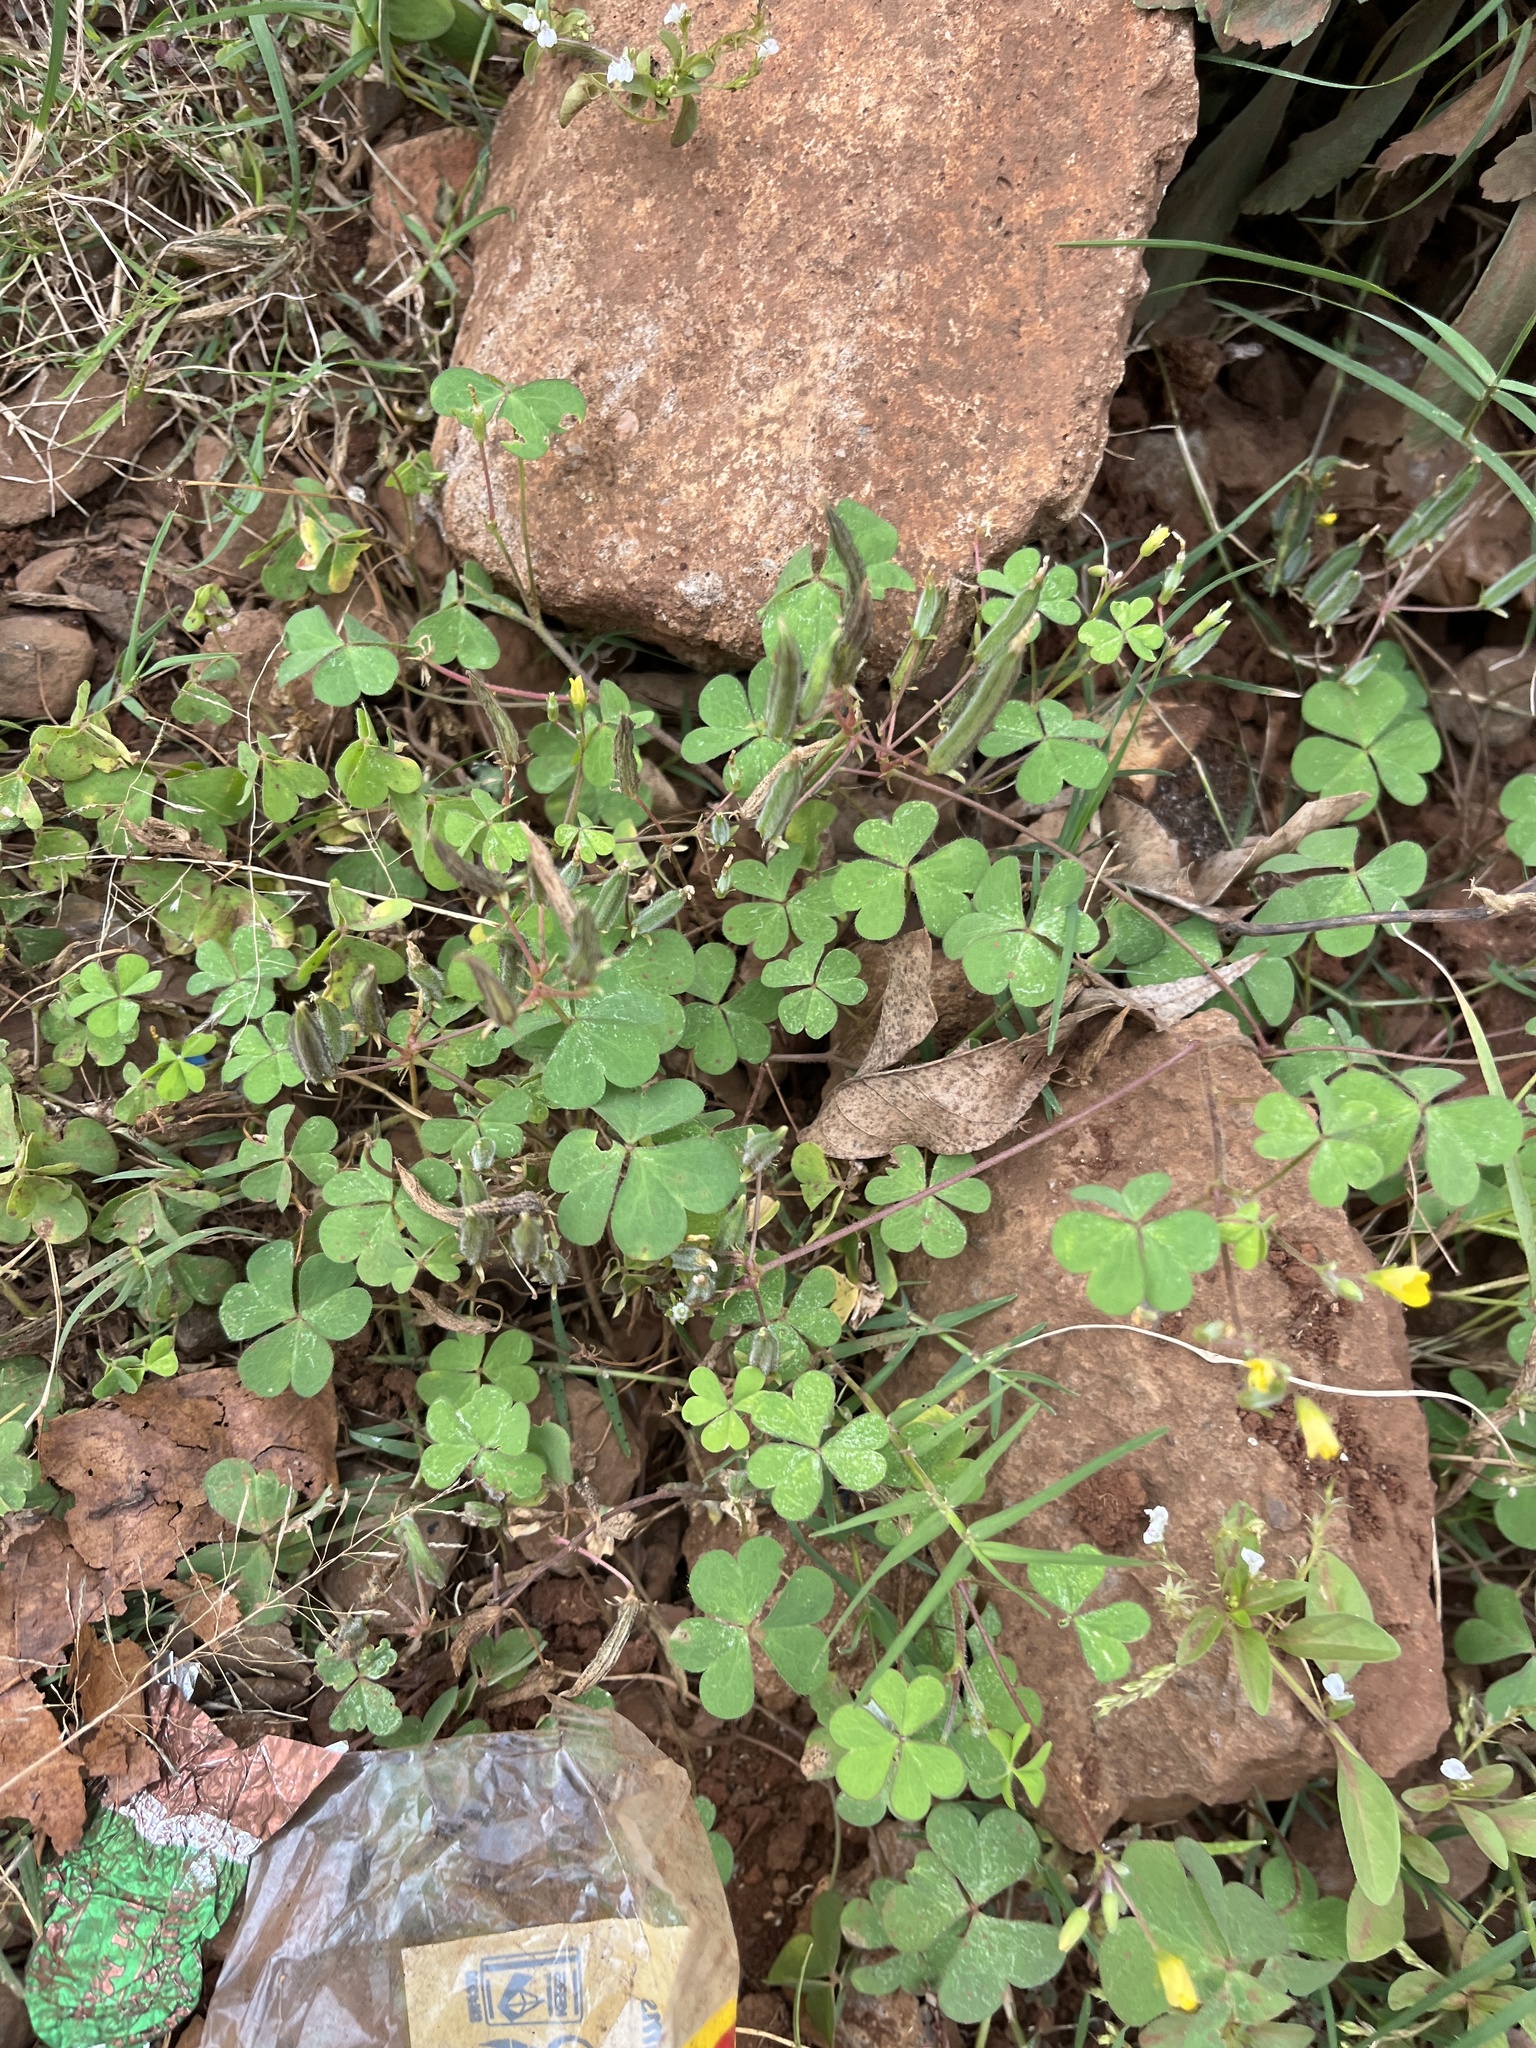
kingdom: Plantae
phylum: Tracheophyta
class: Magnoliopsida
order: Oxalidales
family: Oxalidaceae
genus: Oxalis
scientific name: Oxalis corniculata
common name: Procumbent yellow-sorrel
